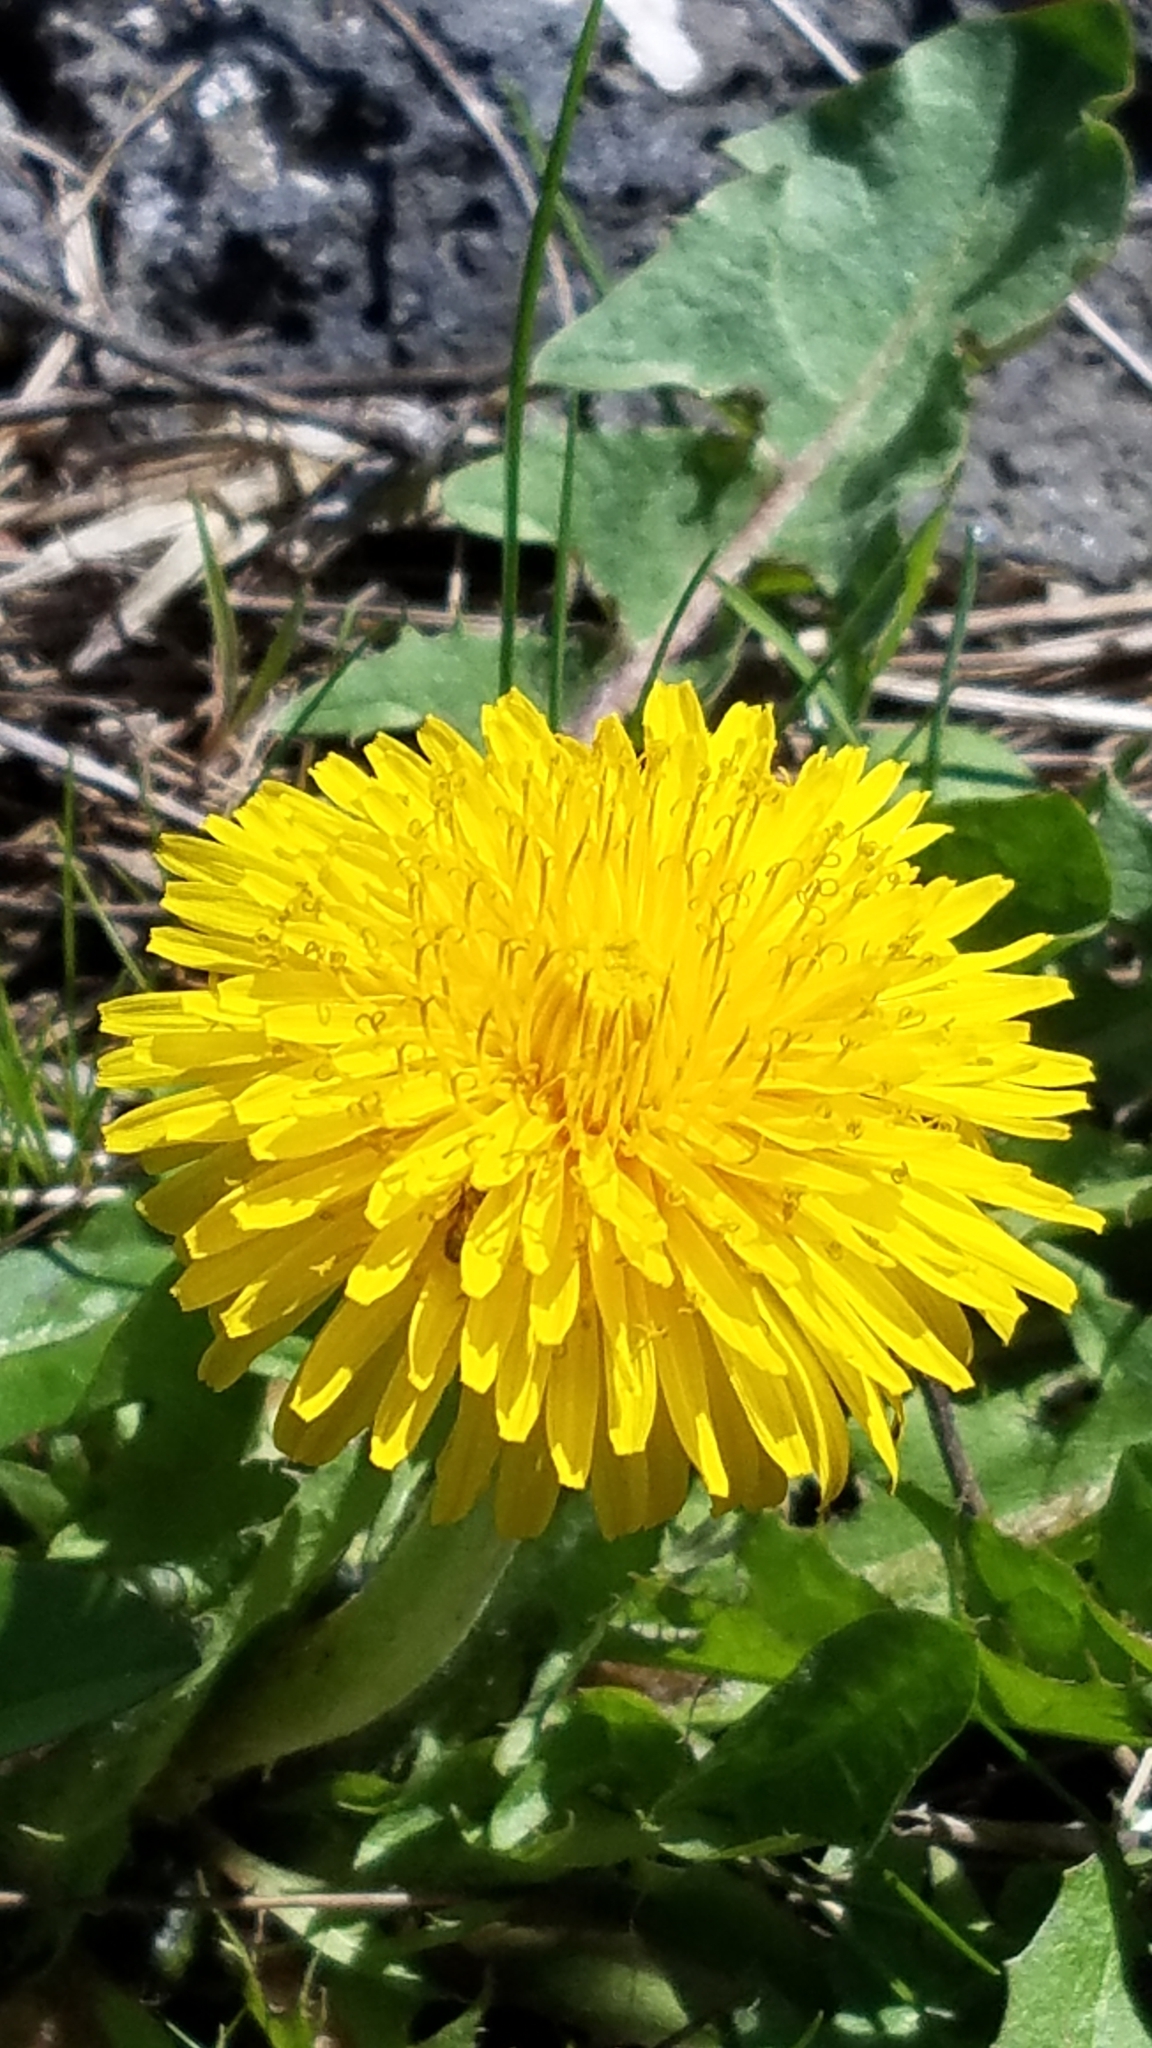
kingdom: Plantae
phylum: Tracheophyta
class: Magnoliopsida
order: Asterales
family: Asteraceae
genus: Taraxacum
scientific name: Taraxacum officinale
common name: Common dandelion
